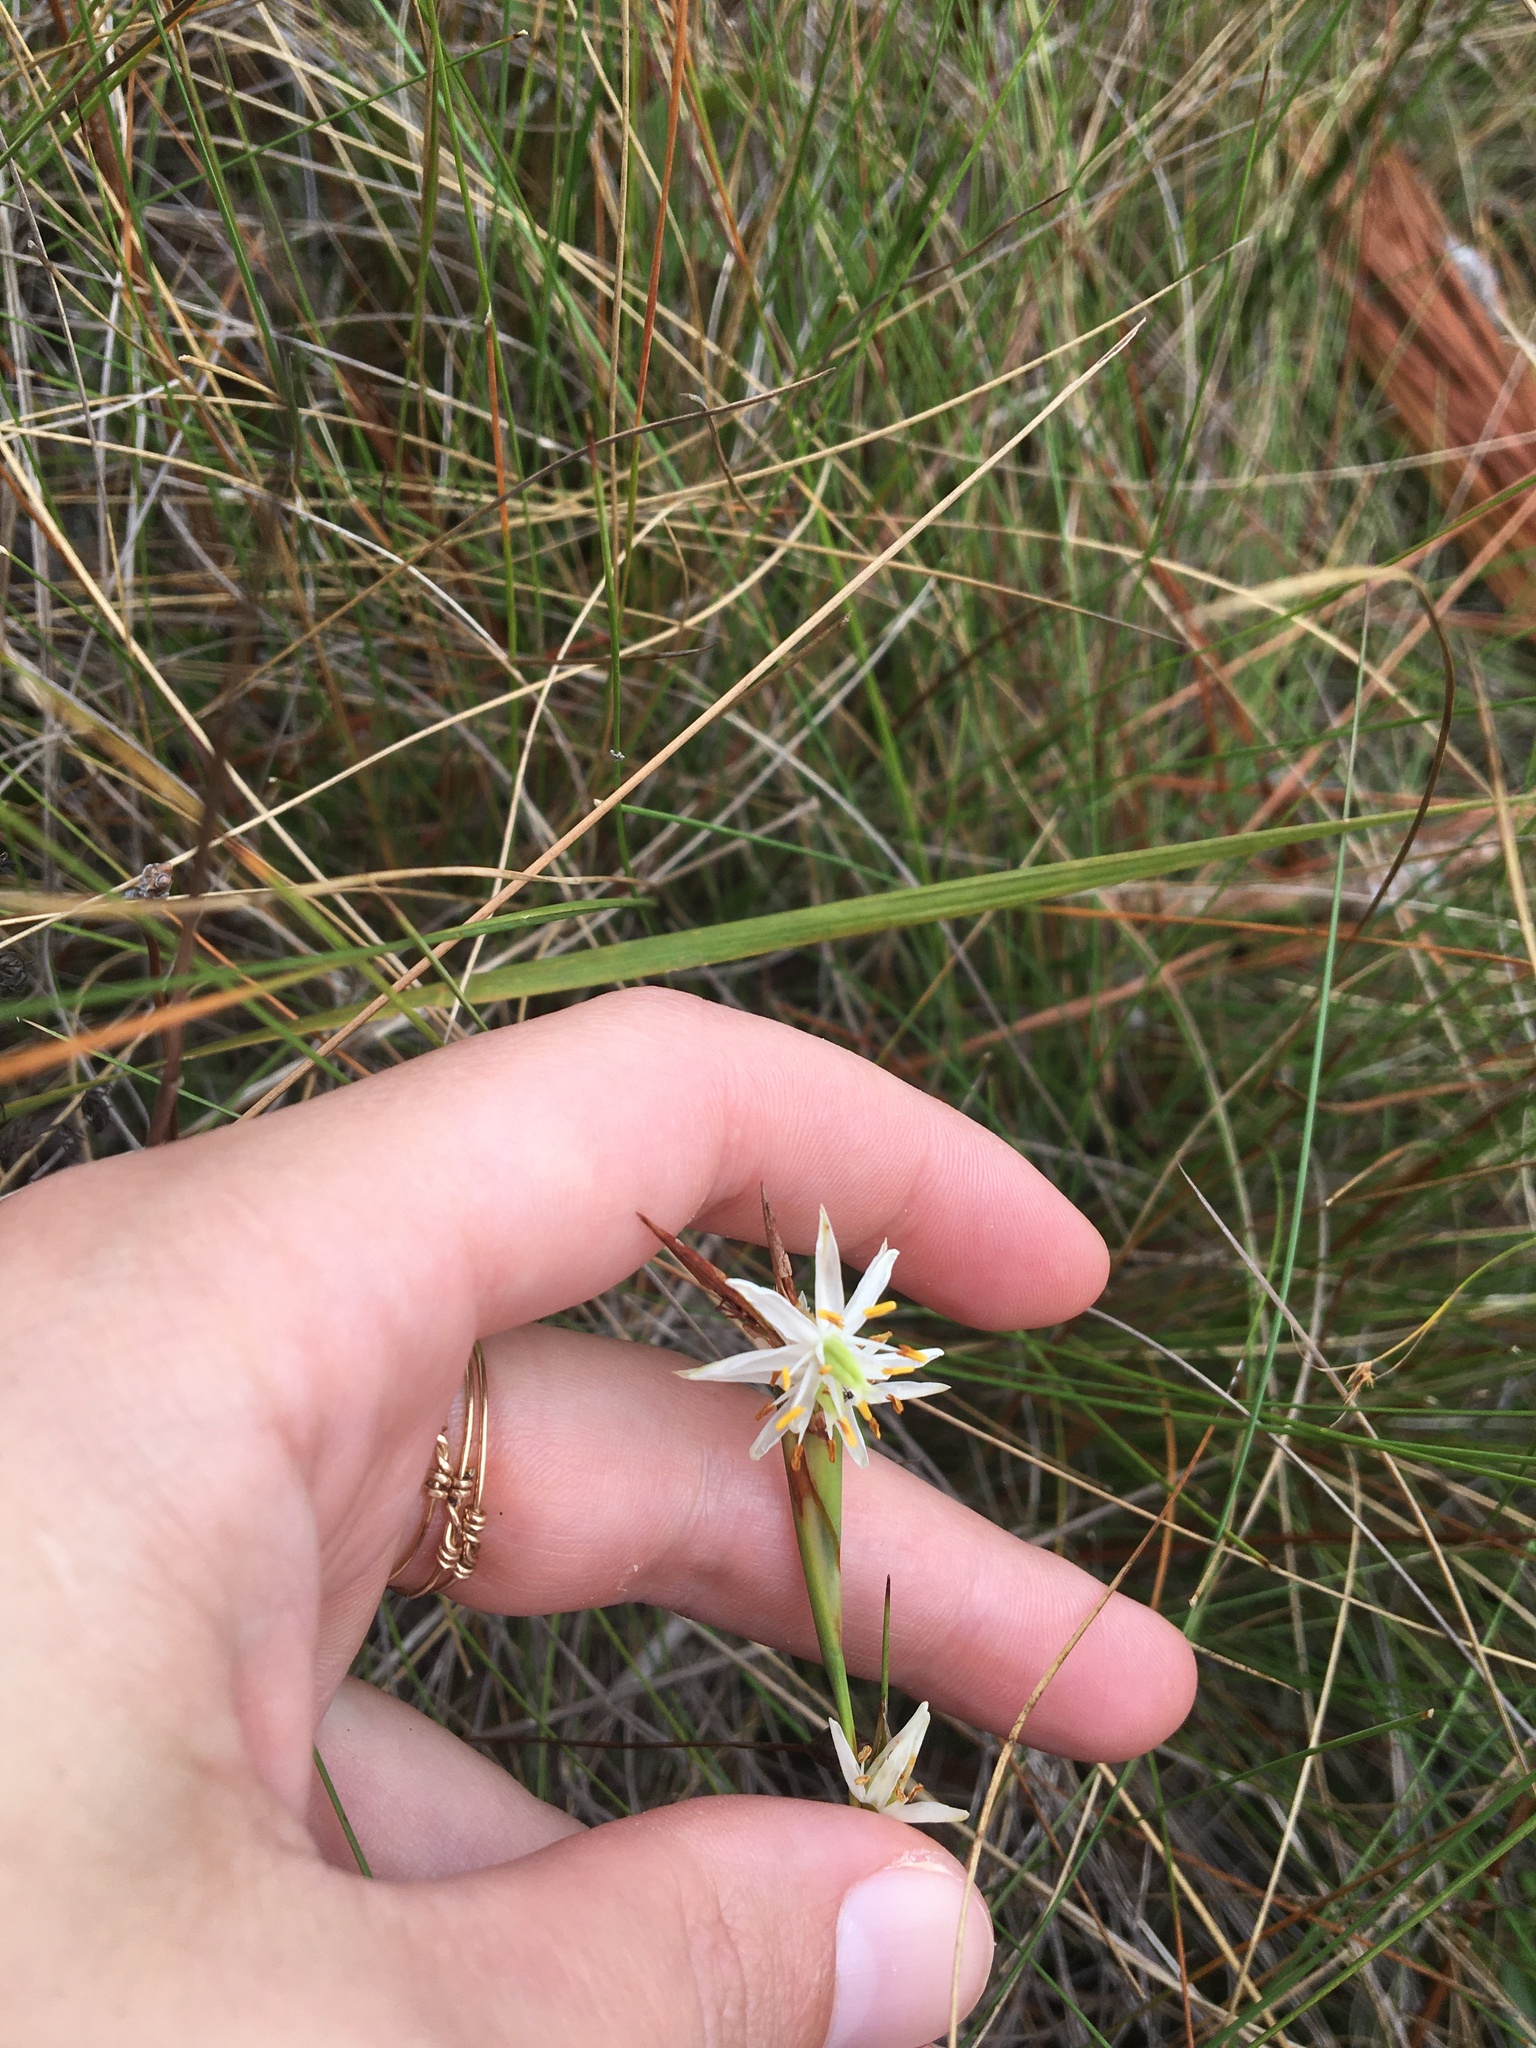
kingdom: Plantae
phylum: Tracheophyta
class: Liliopsida
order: Alismatales
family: Tofieldiaceae
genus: Pleea
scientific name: Pleea tenuifolia
